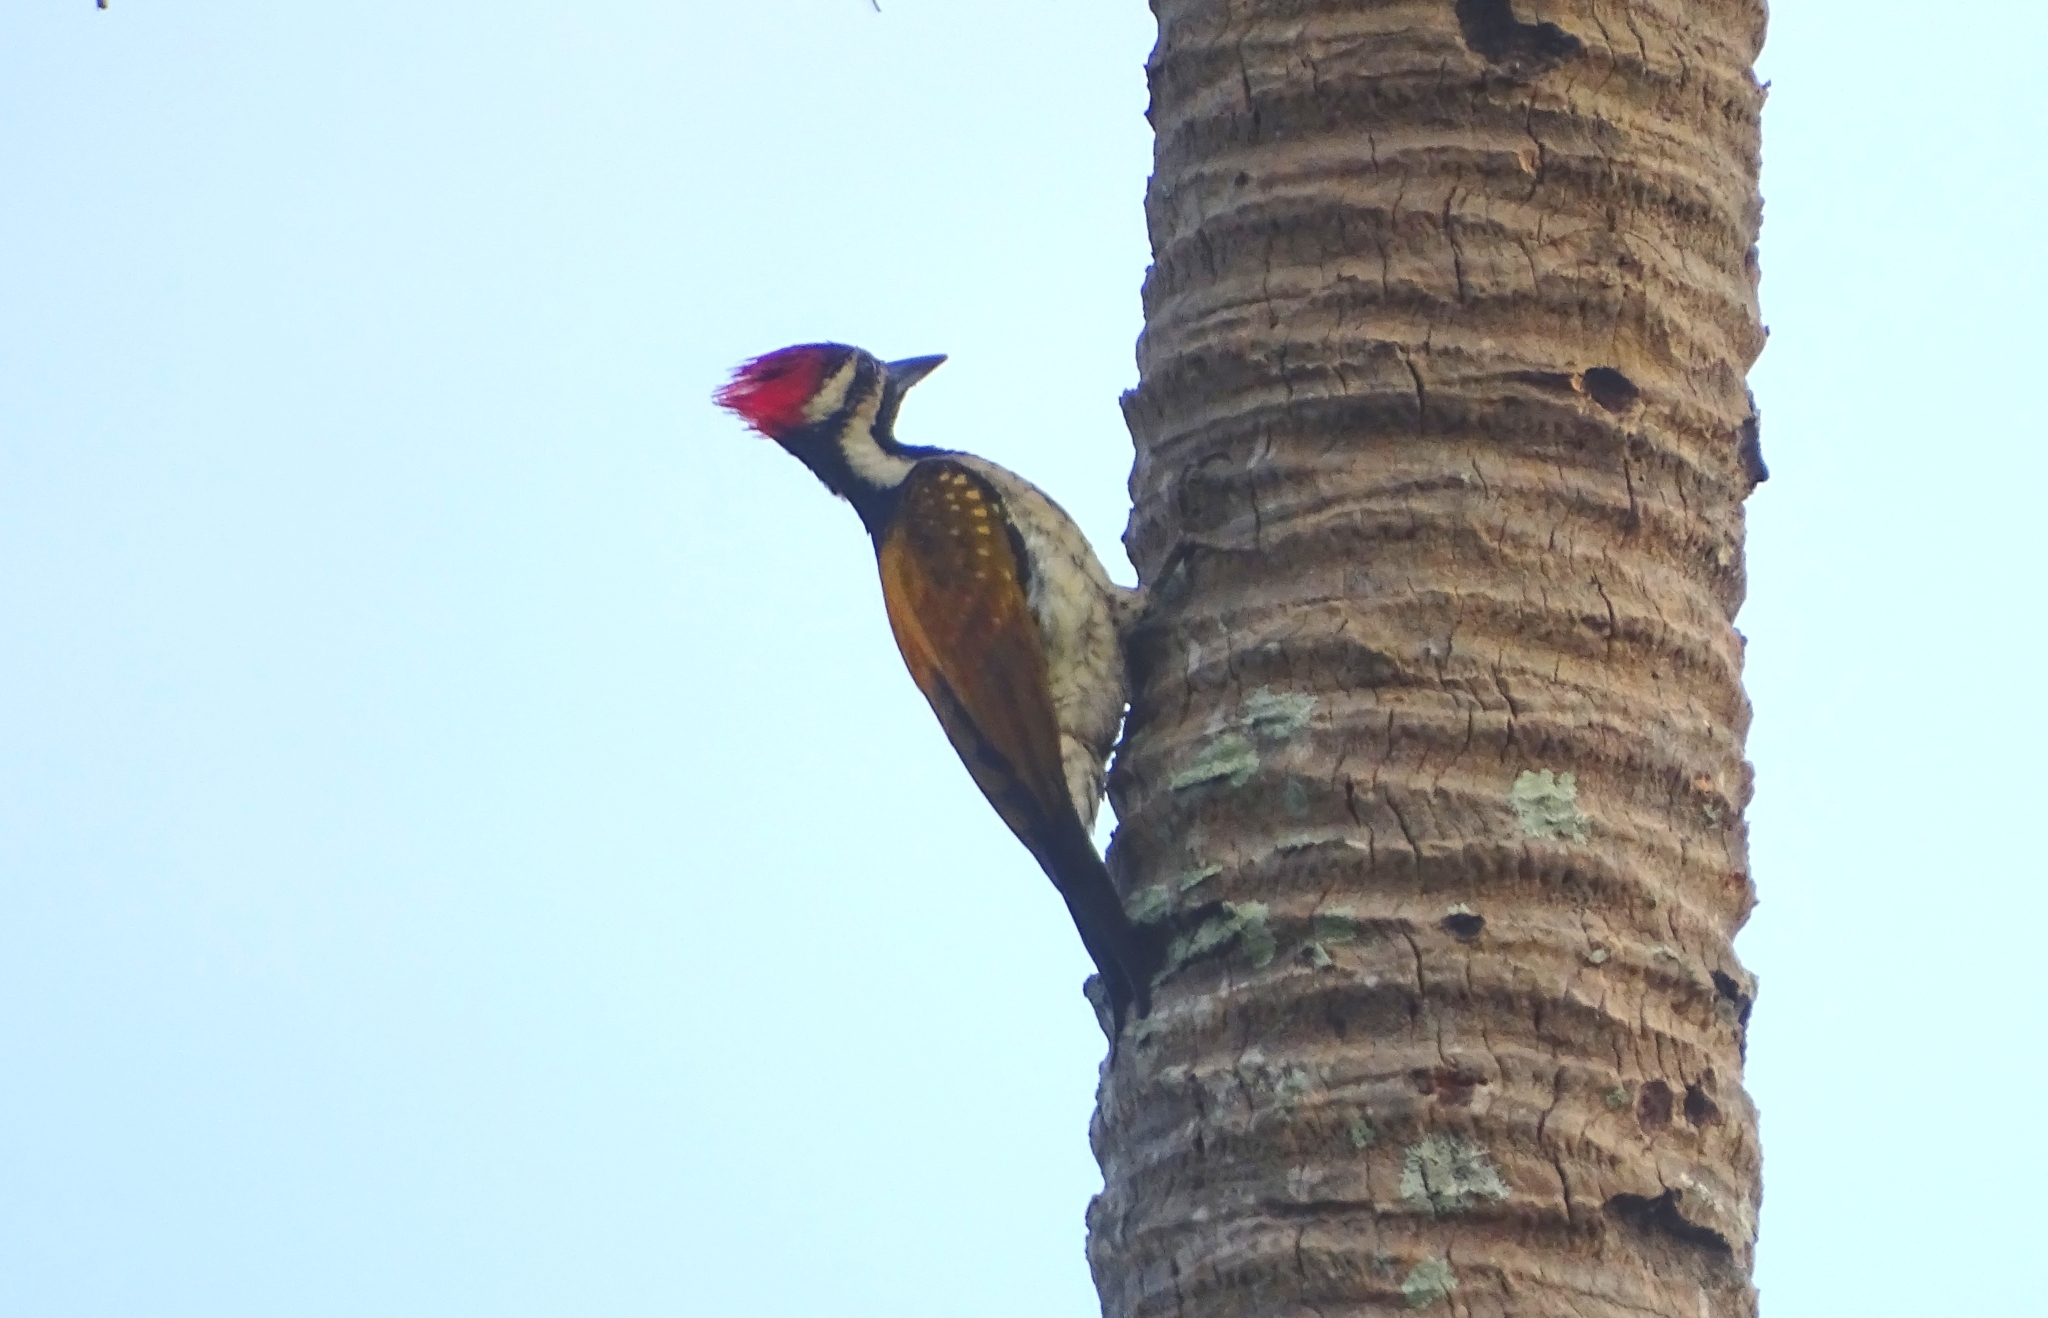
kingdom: Animalia
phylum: Chordata
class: Aves
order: Piciformes
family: Picidae
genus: Dinopium
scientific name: Dinopium benghalense
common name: Black-rumped flameback
